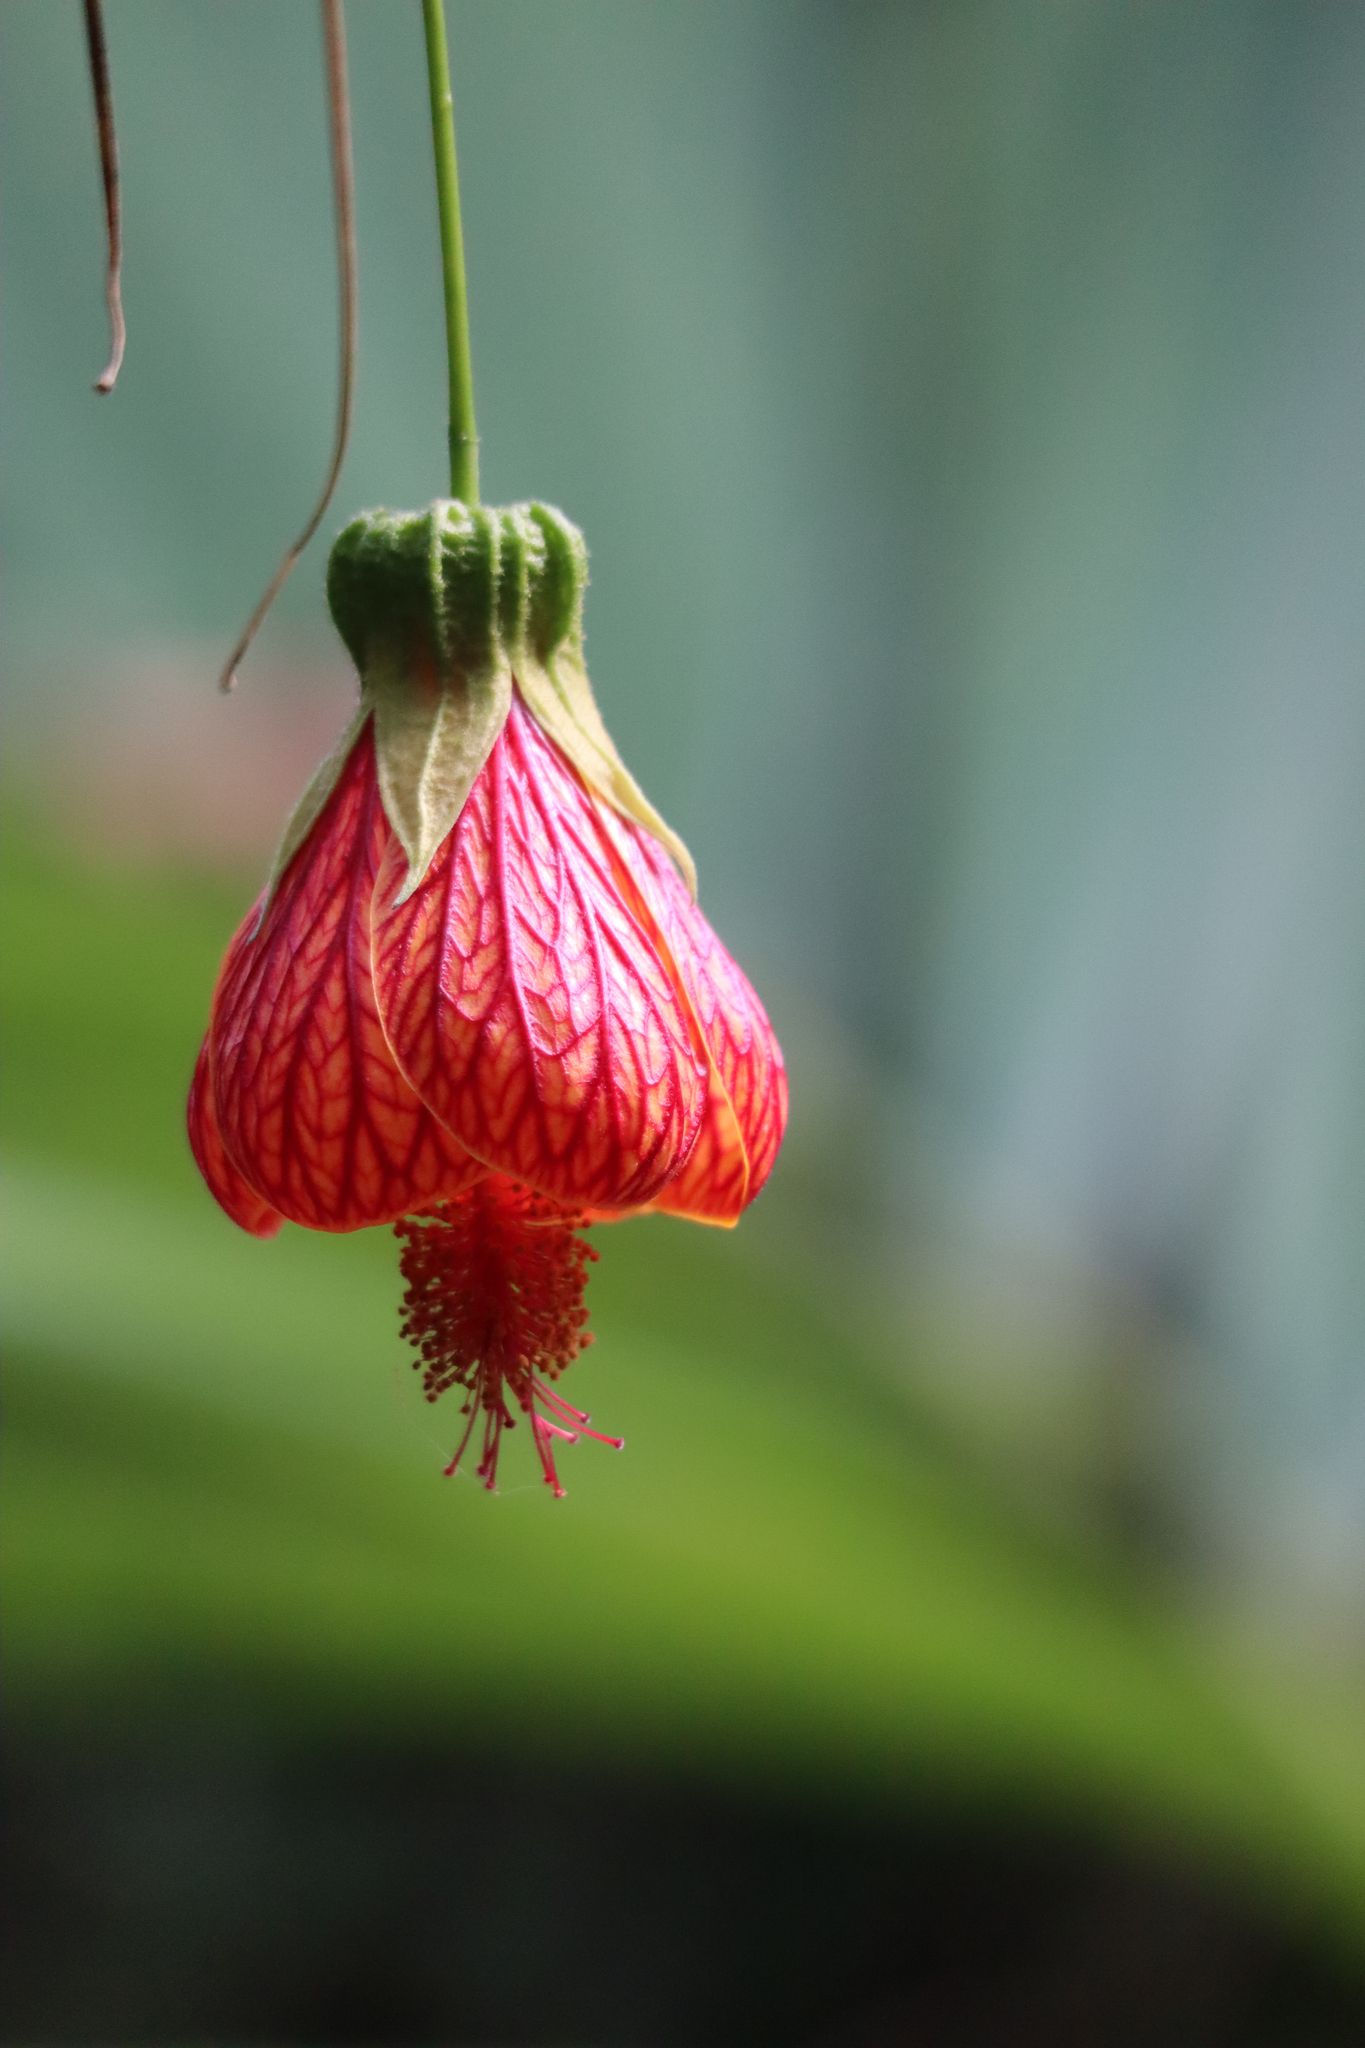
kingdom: Plantae
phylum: Tracheophyta
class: Magnoliopsida
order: Malvales
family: Malvaceae
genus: Callianthe
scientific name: Callianthe picta
